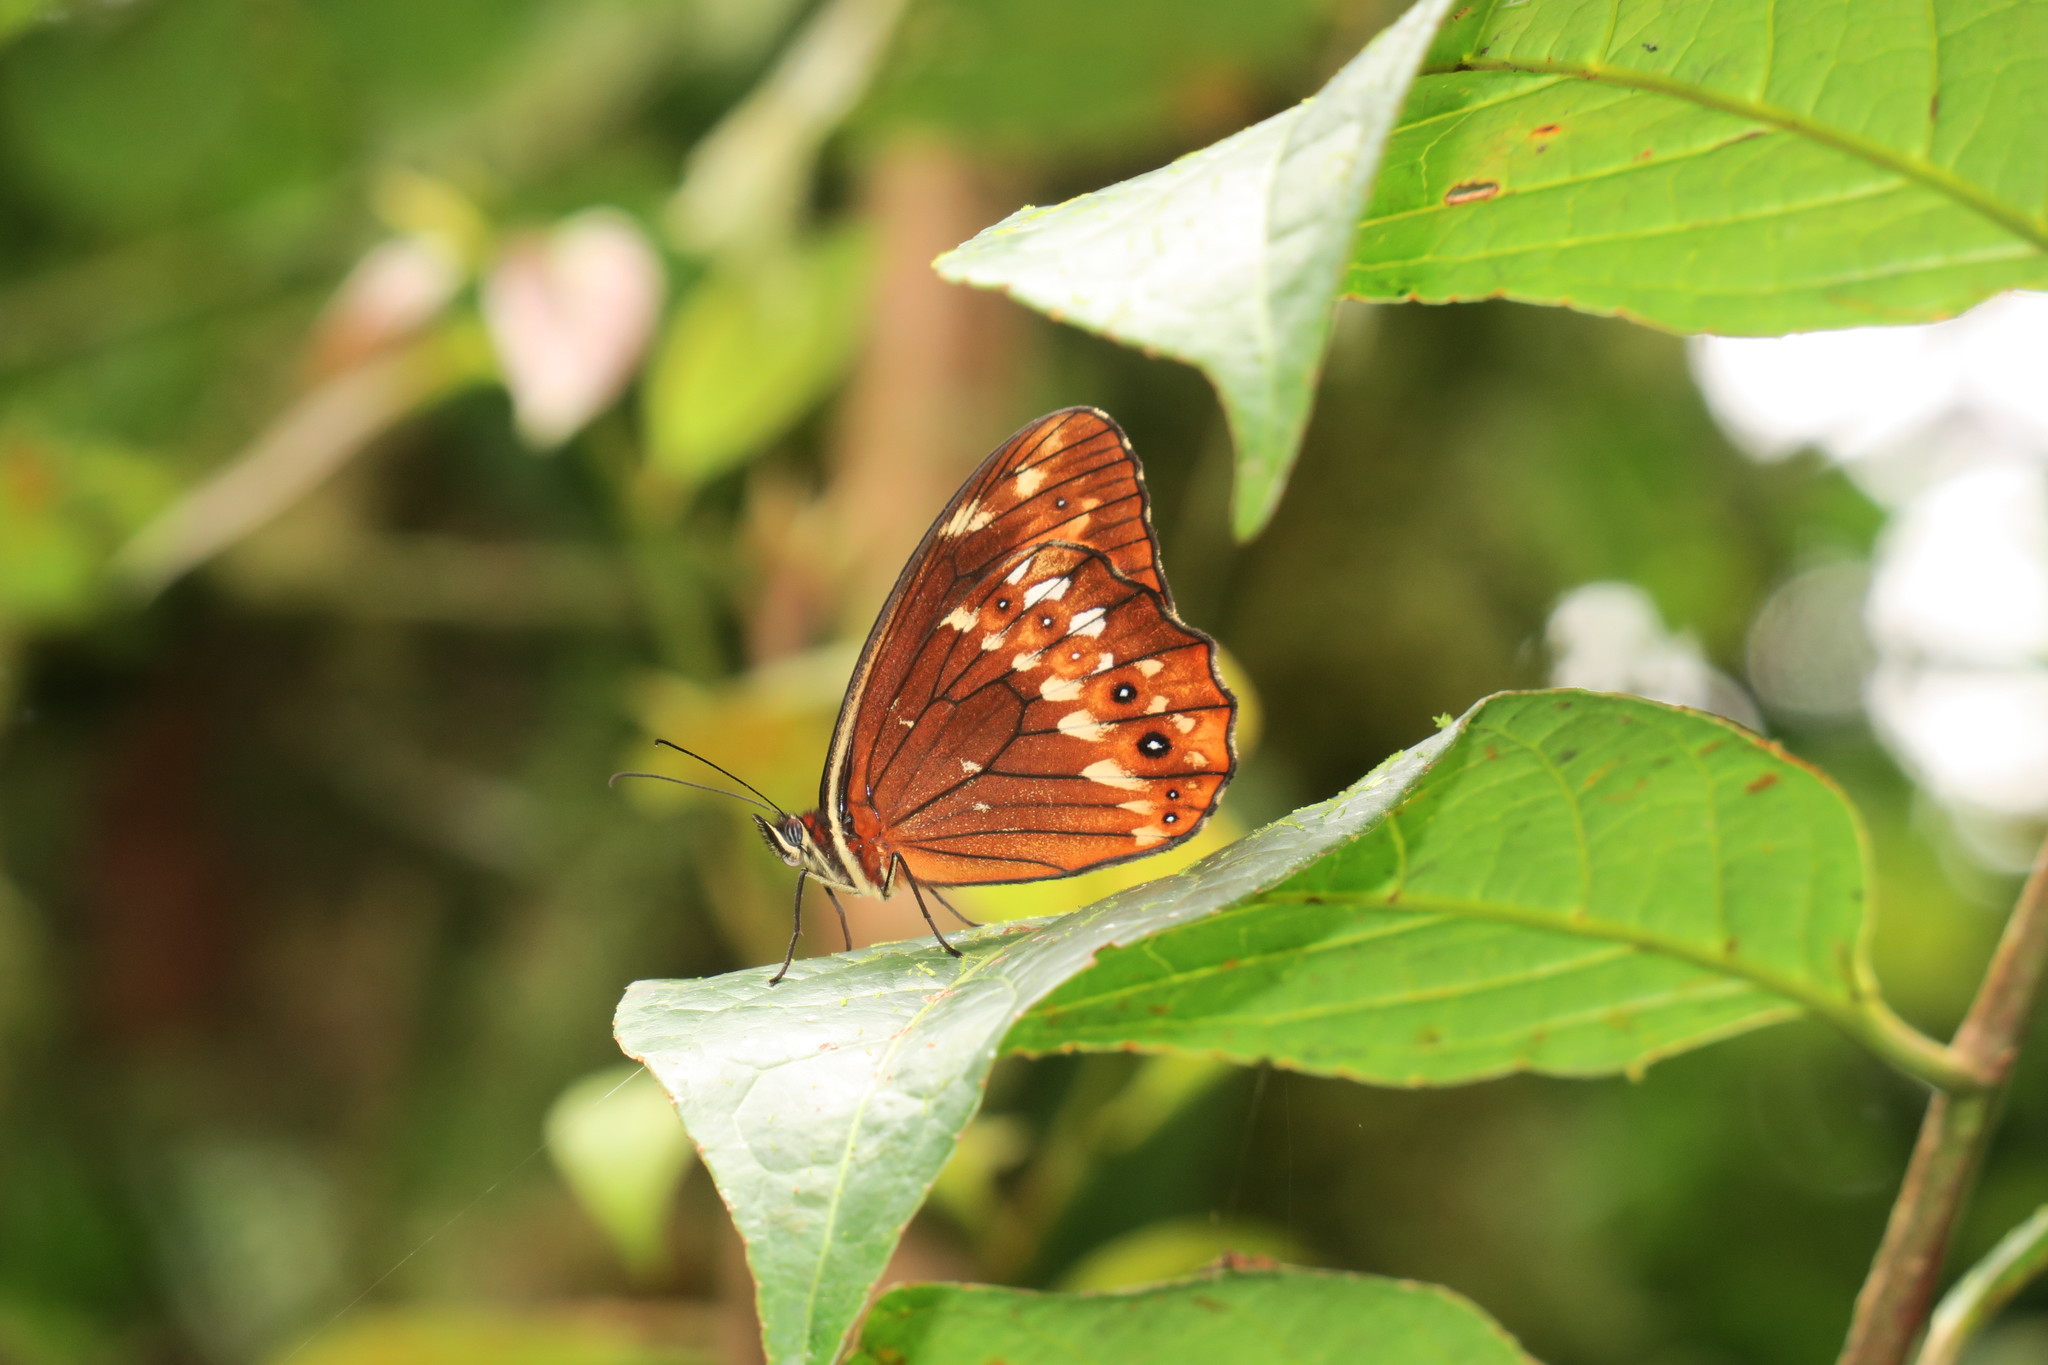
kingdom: Animalia
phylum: Arthropoda
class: Insecta
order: Lepidoptera
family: Nymphalidae
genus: Oxeoschistus
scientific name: Oxeoschistus protogenia
